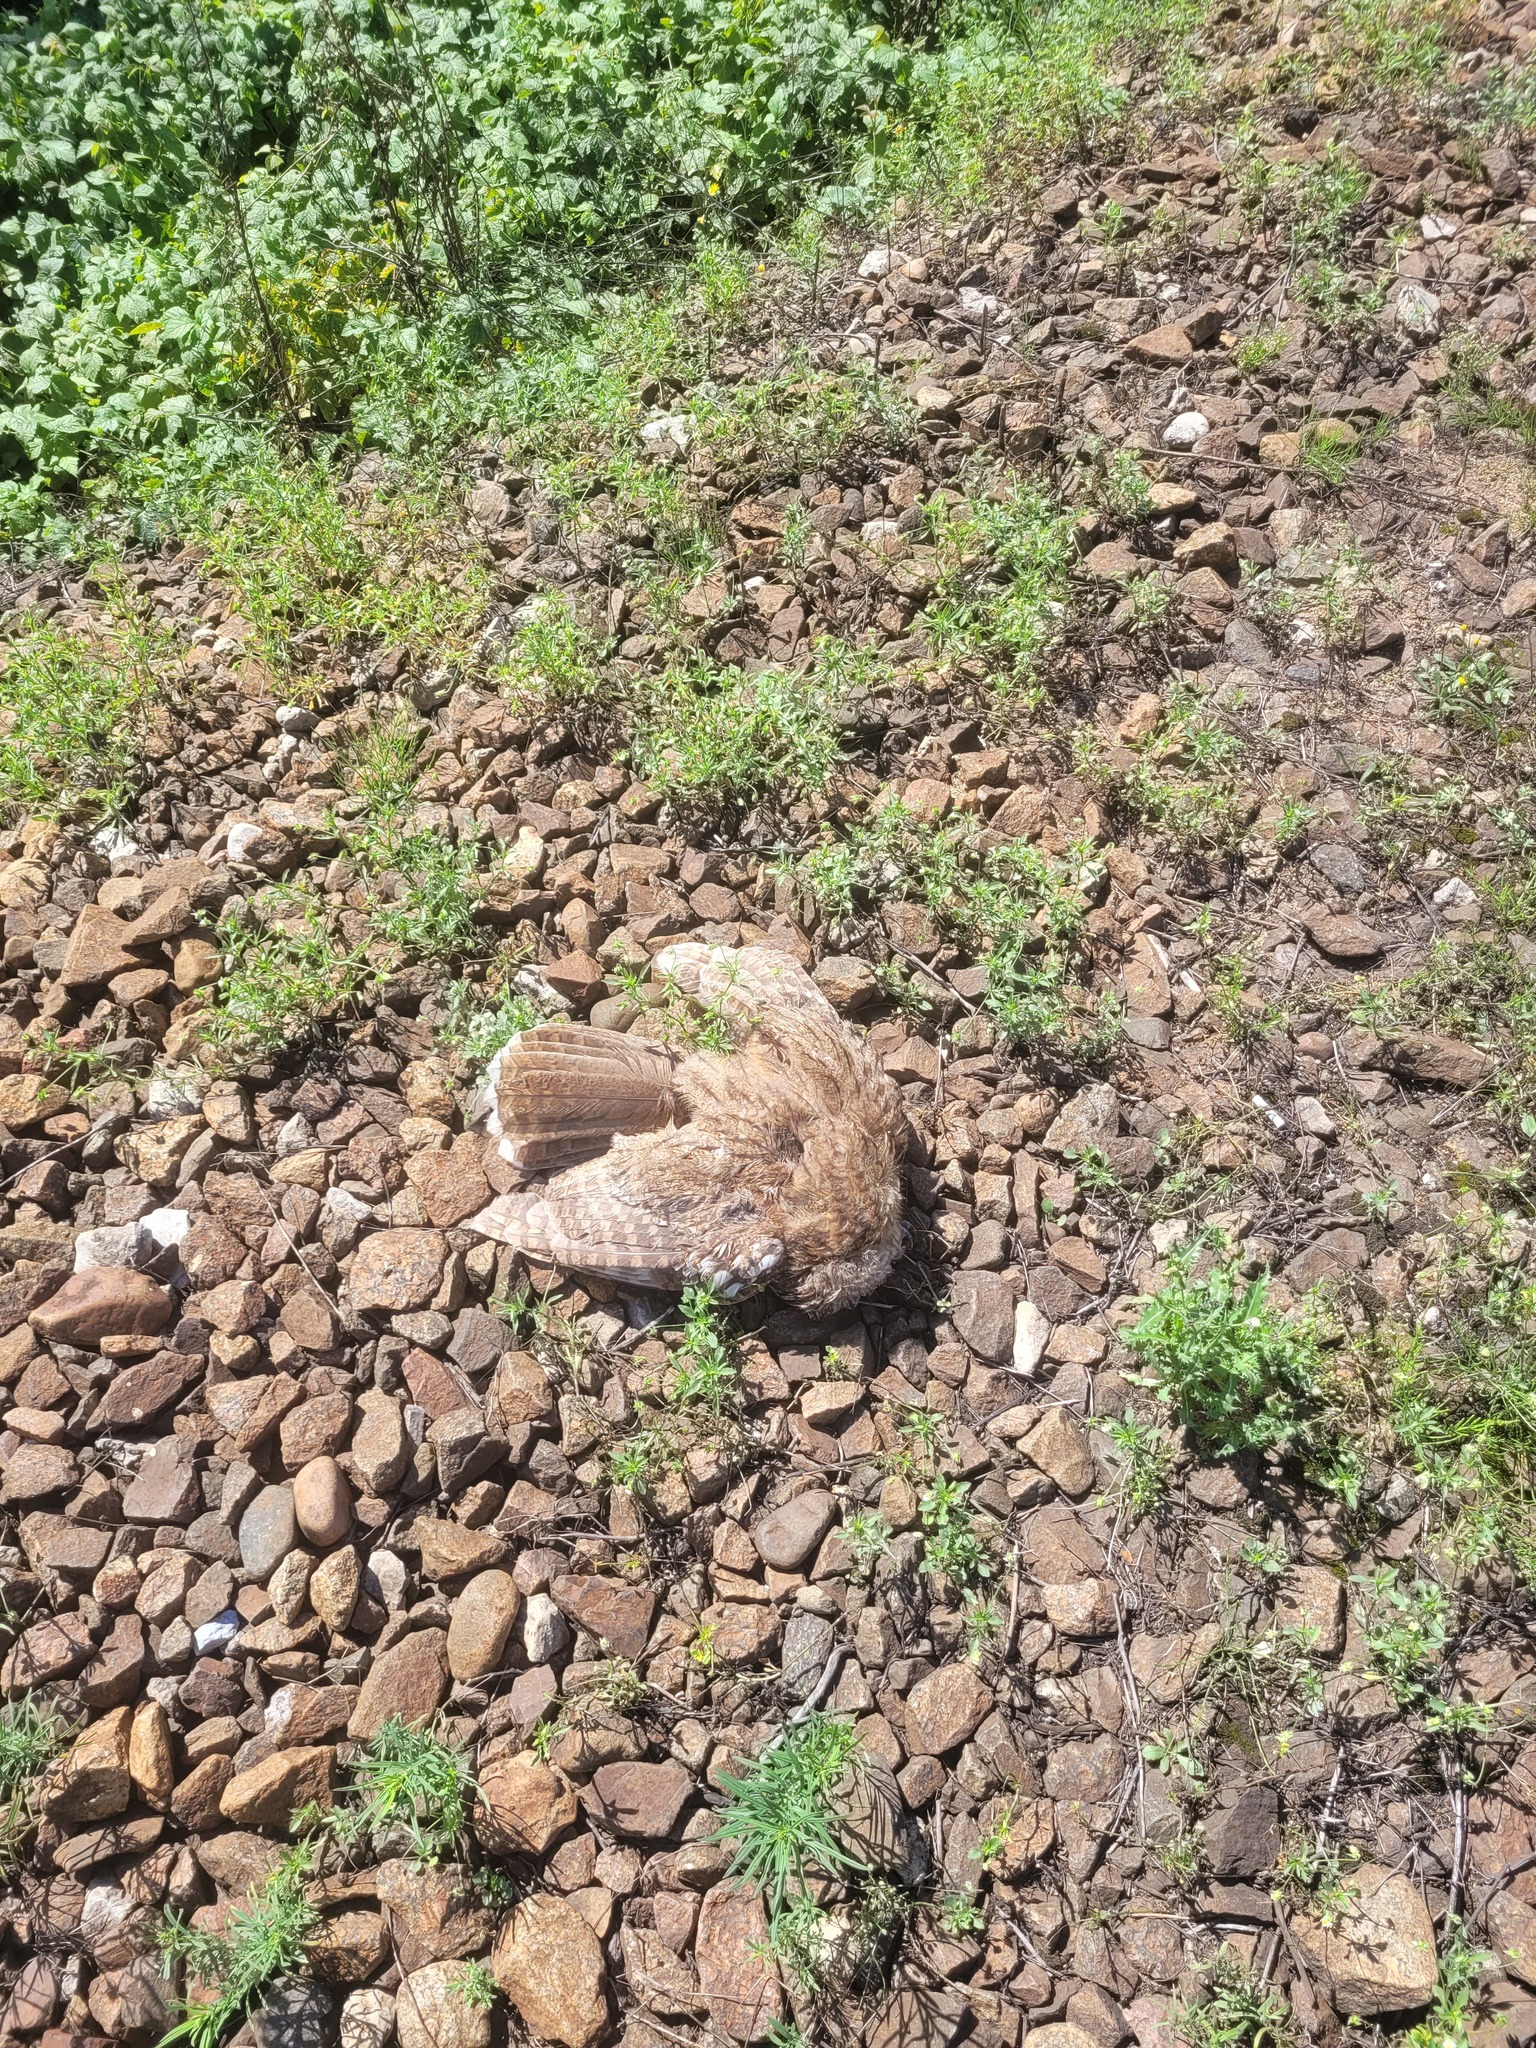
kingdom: Animalia
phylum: Chordata
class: Aves
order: Strigiformes
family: Strigidae
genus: Strix
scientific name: Strix aluco
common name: Tawny owl
